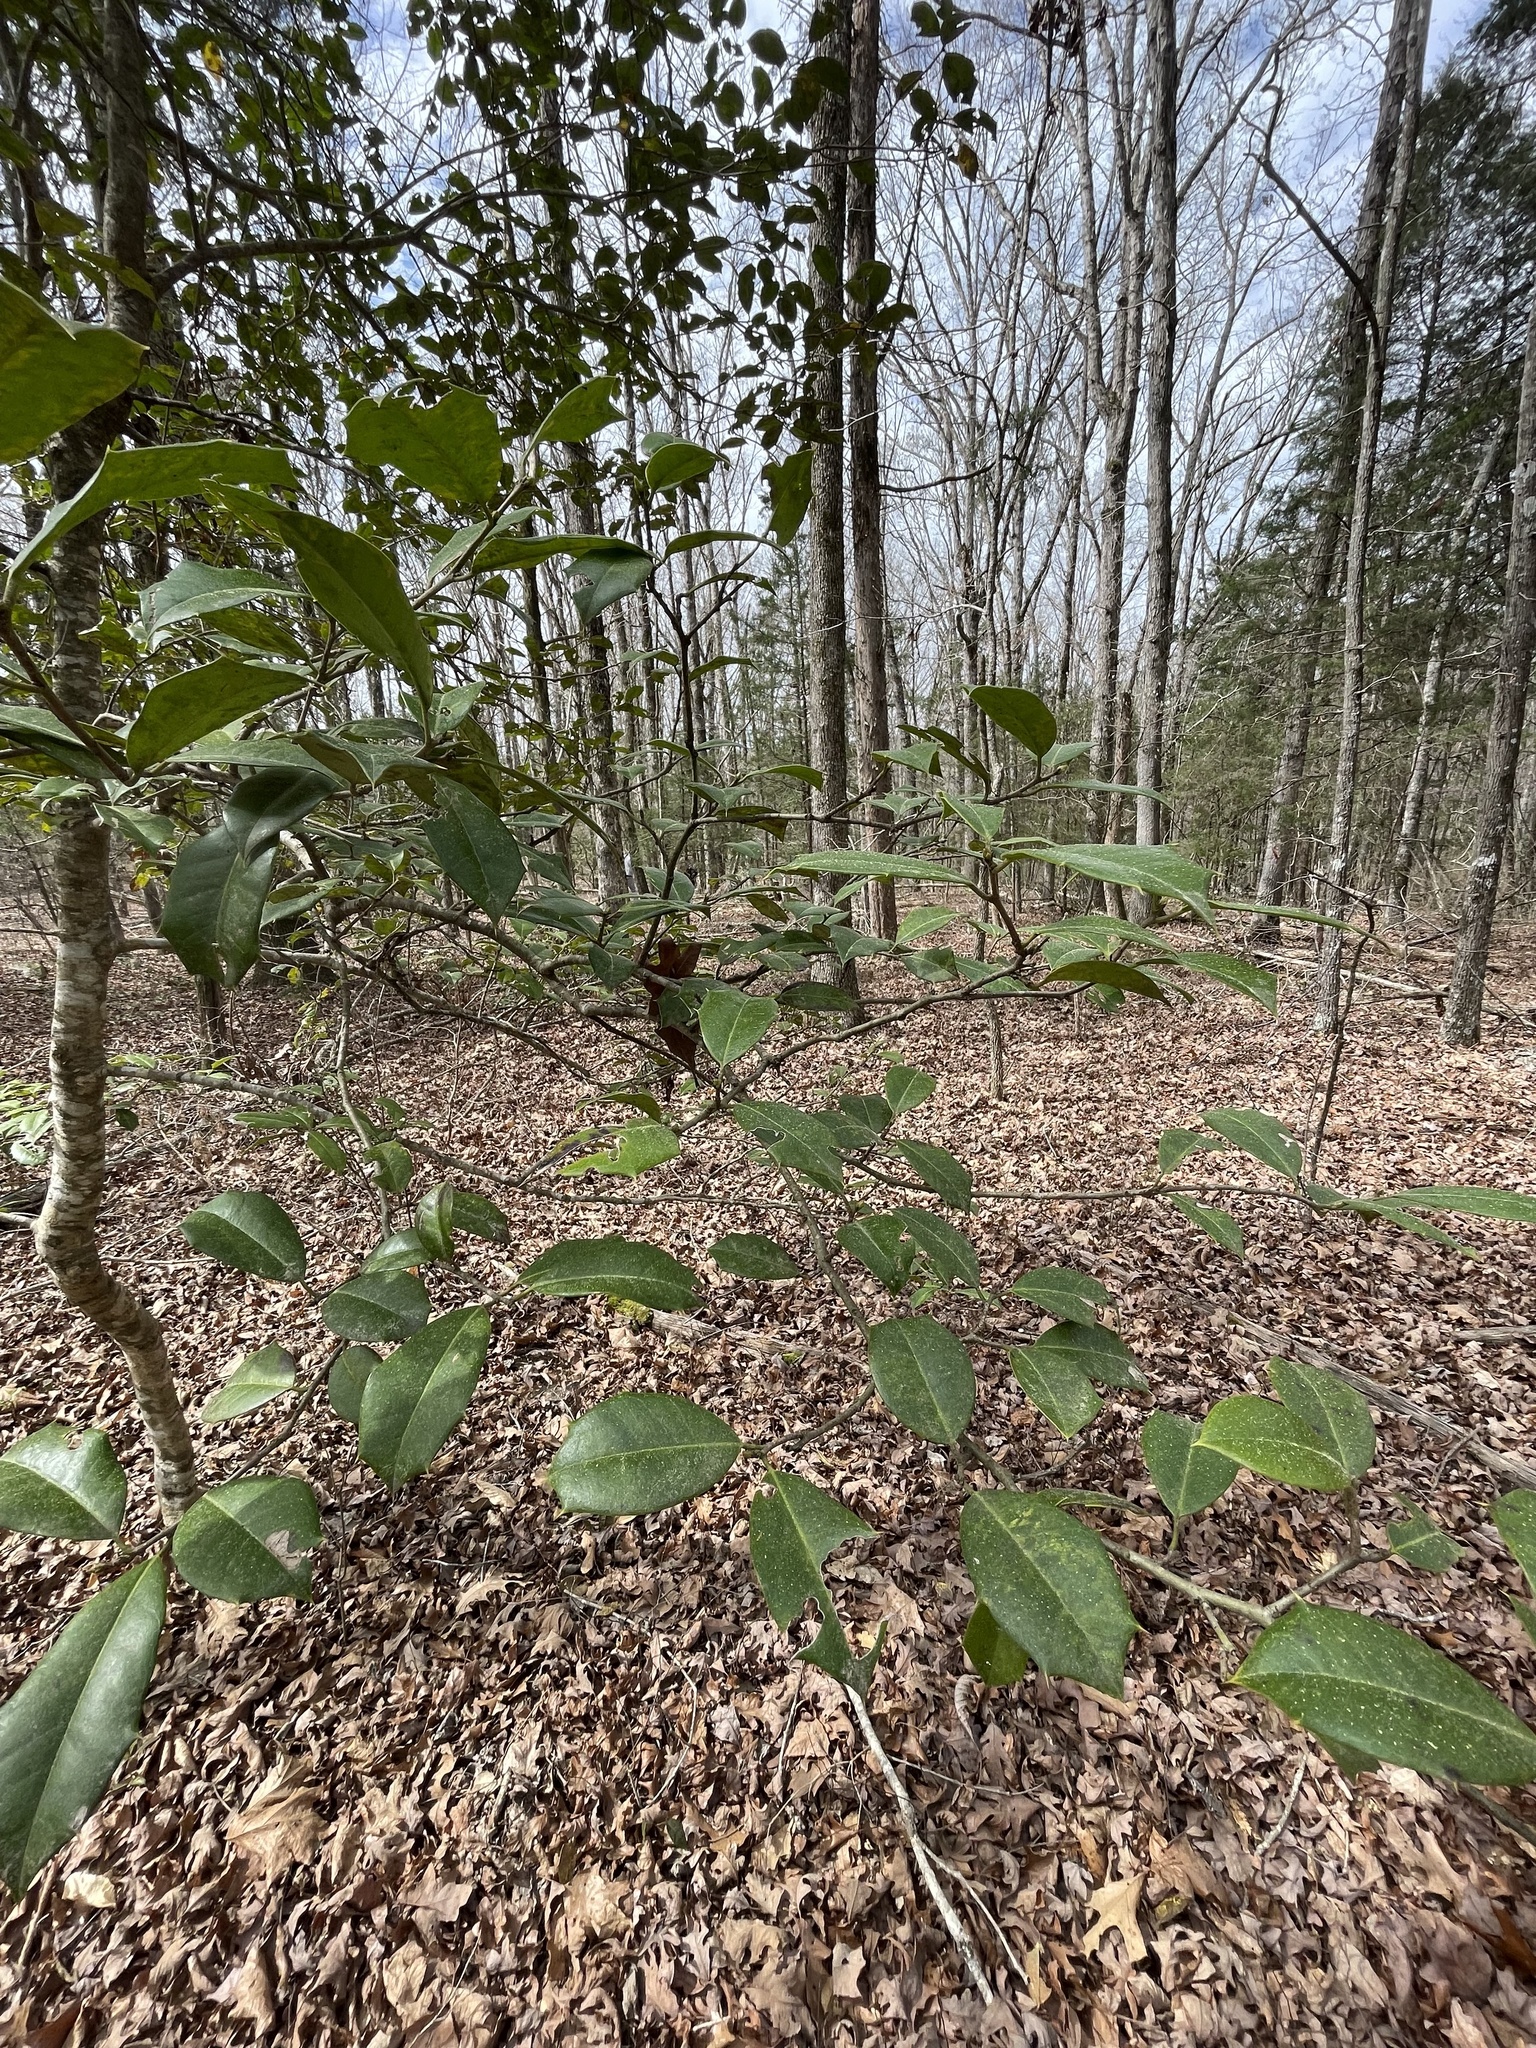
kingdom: Plantae
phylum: Tracheophyta
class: Magnoliopsida
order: Aquifoliales
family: Aquifoliaceae
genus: Ilex
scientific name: Ilex opaca
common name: American holly
